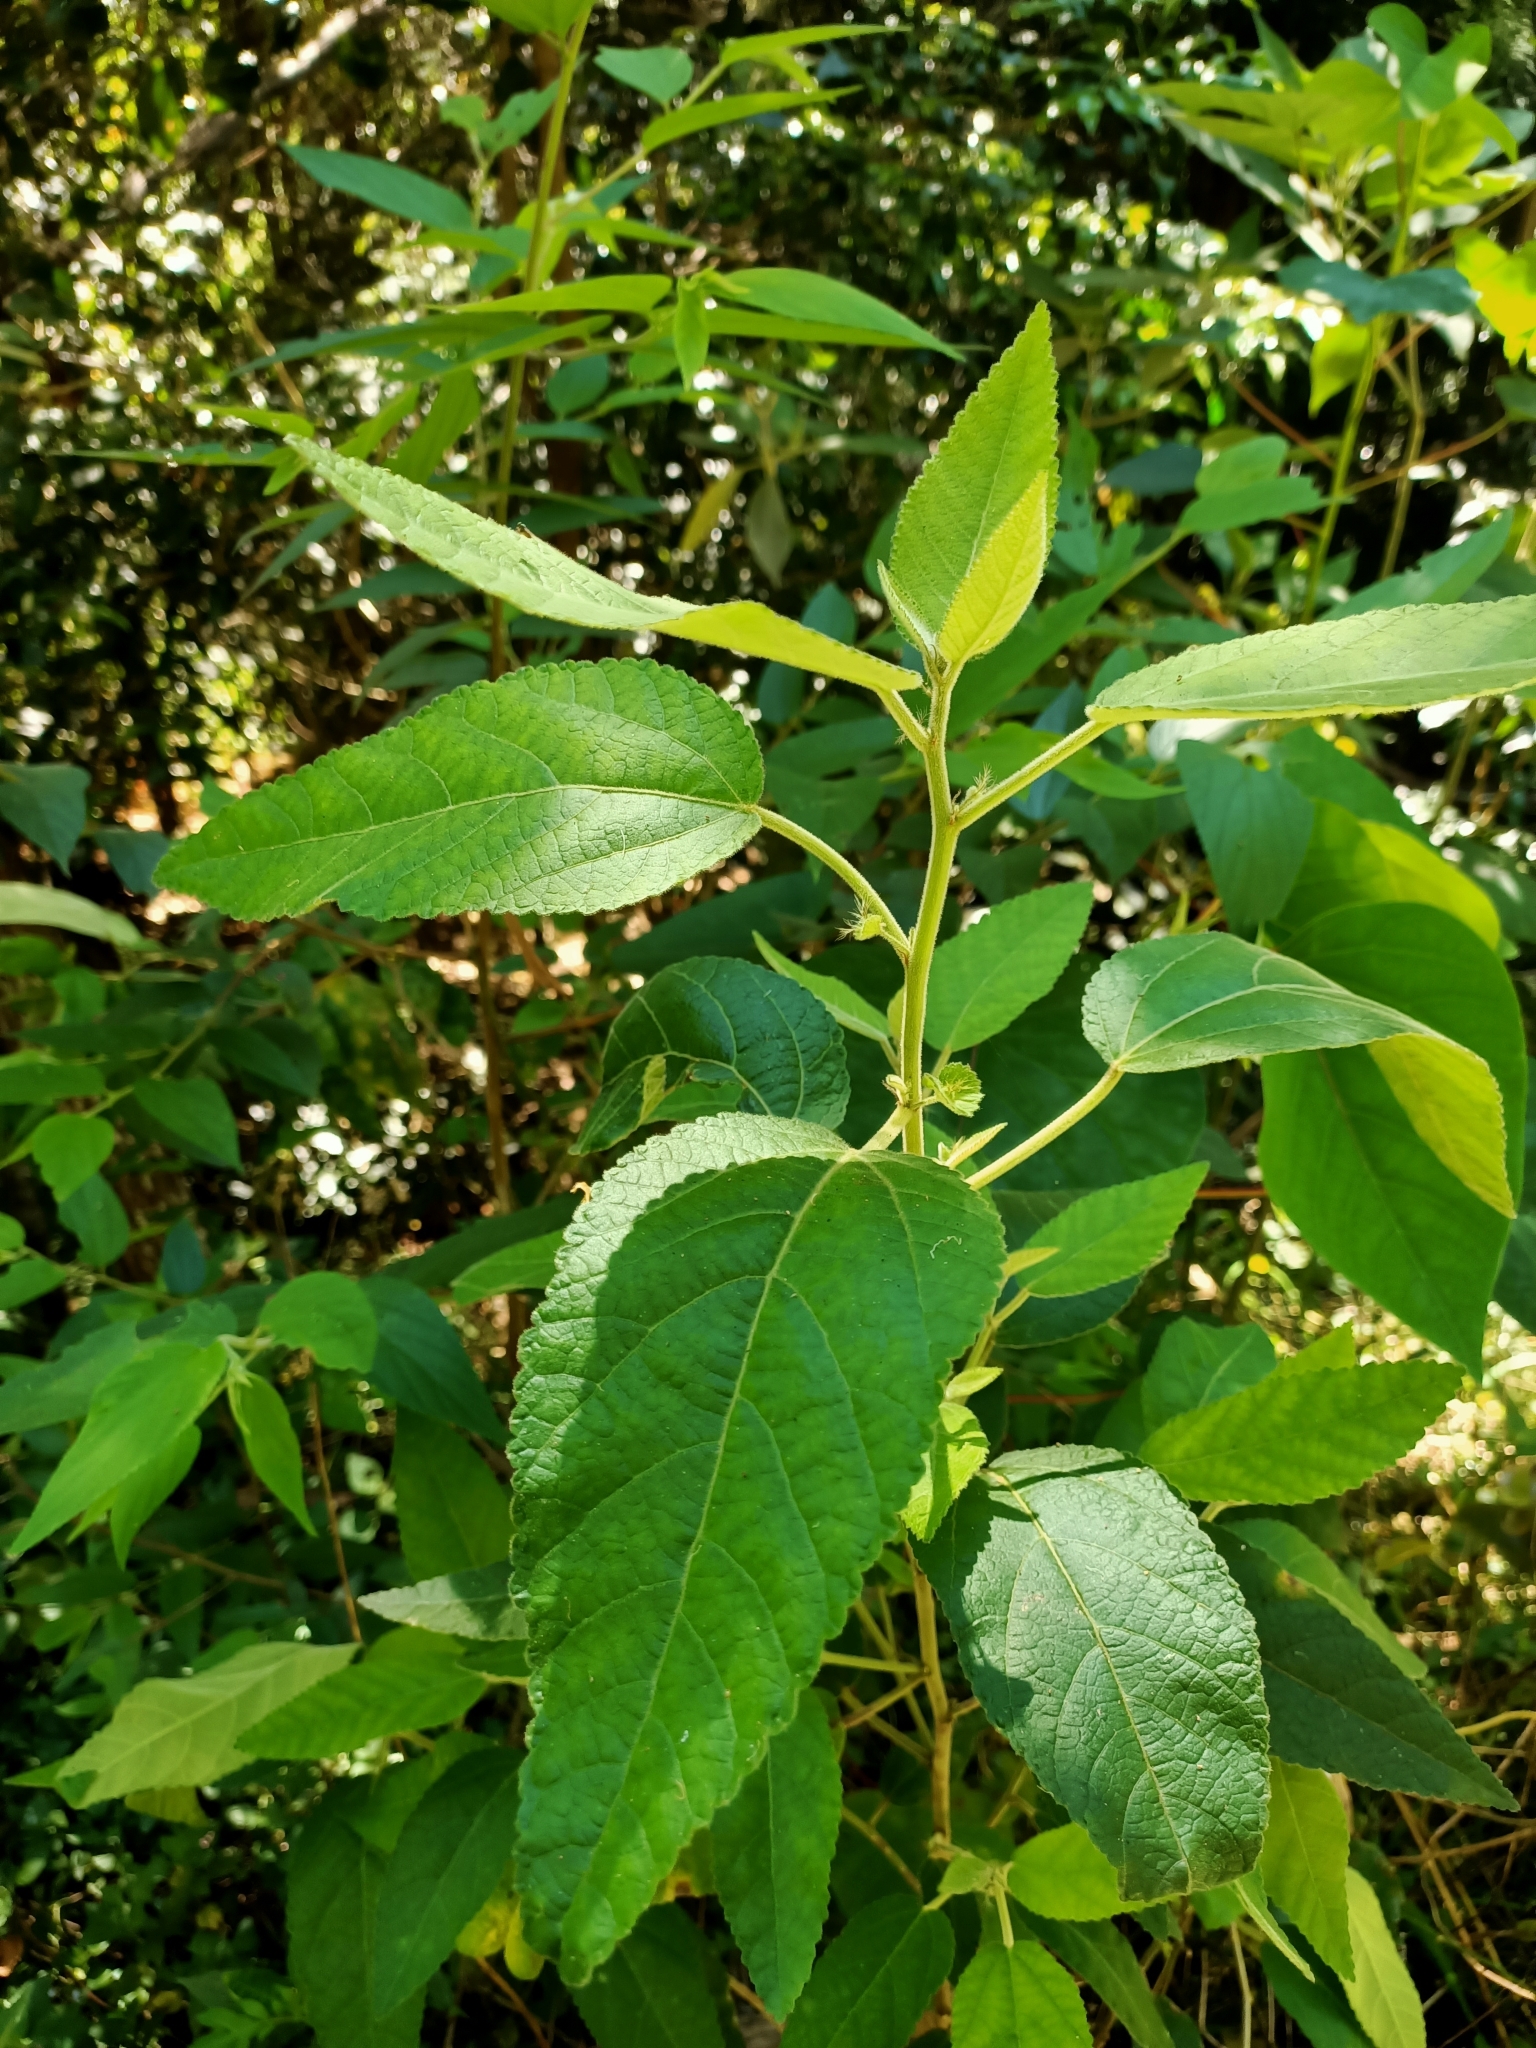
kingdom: Plantae
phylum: Tracheophyta
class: Magnoliopsida
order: Malpighiales
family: Euphorbiaceae
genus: Acalypha
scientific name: Acalypha nemorum
